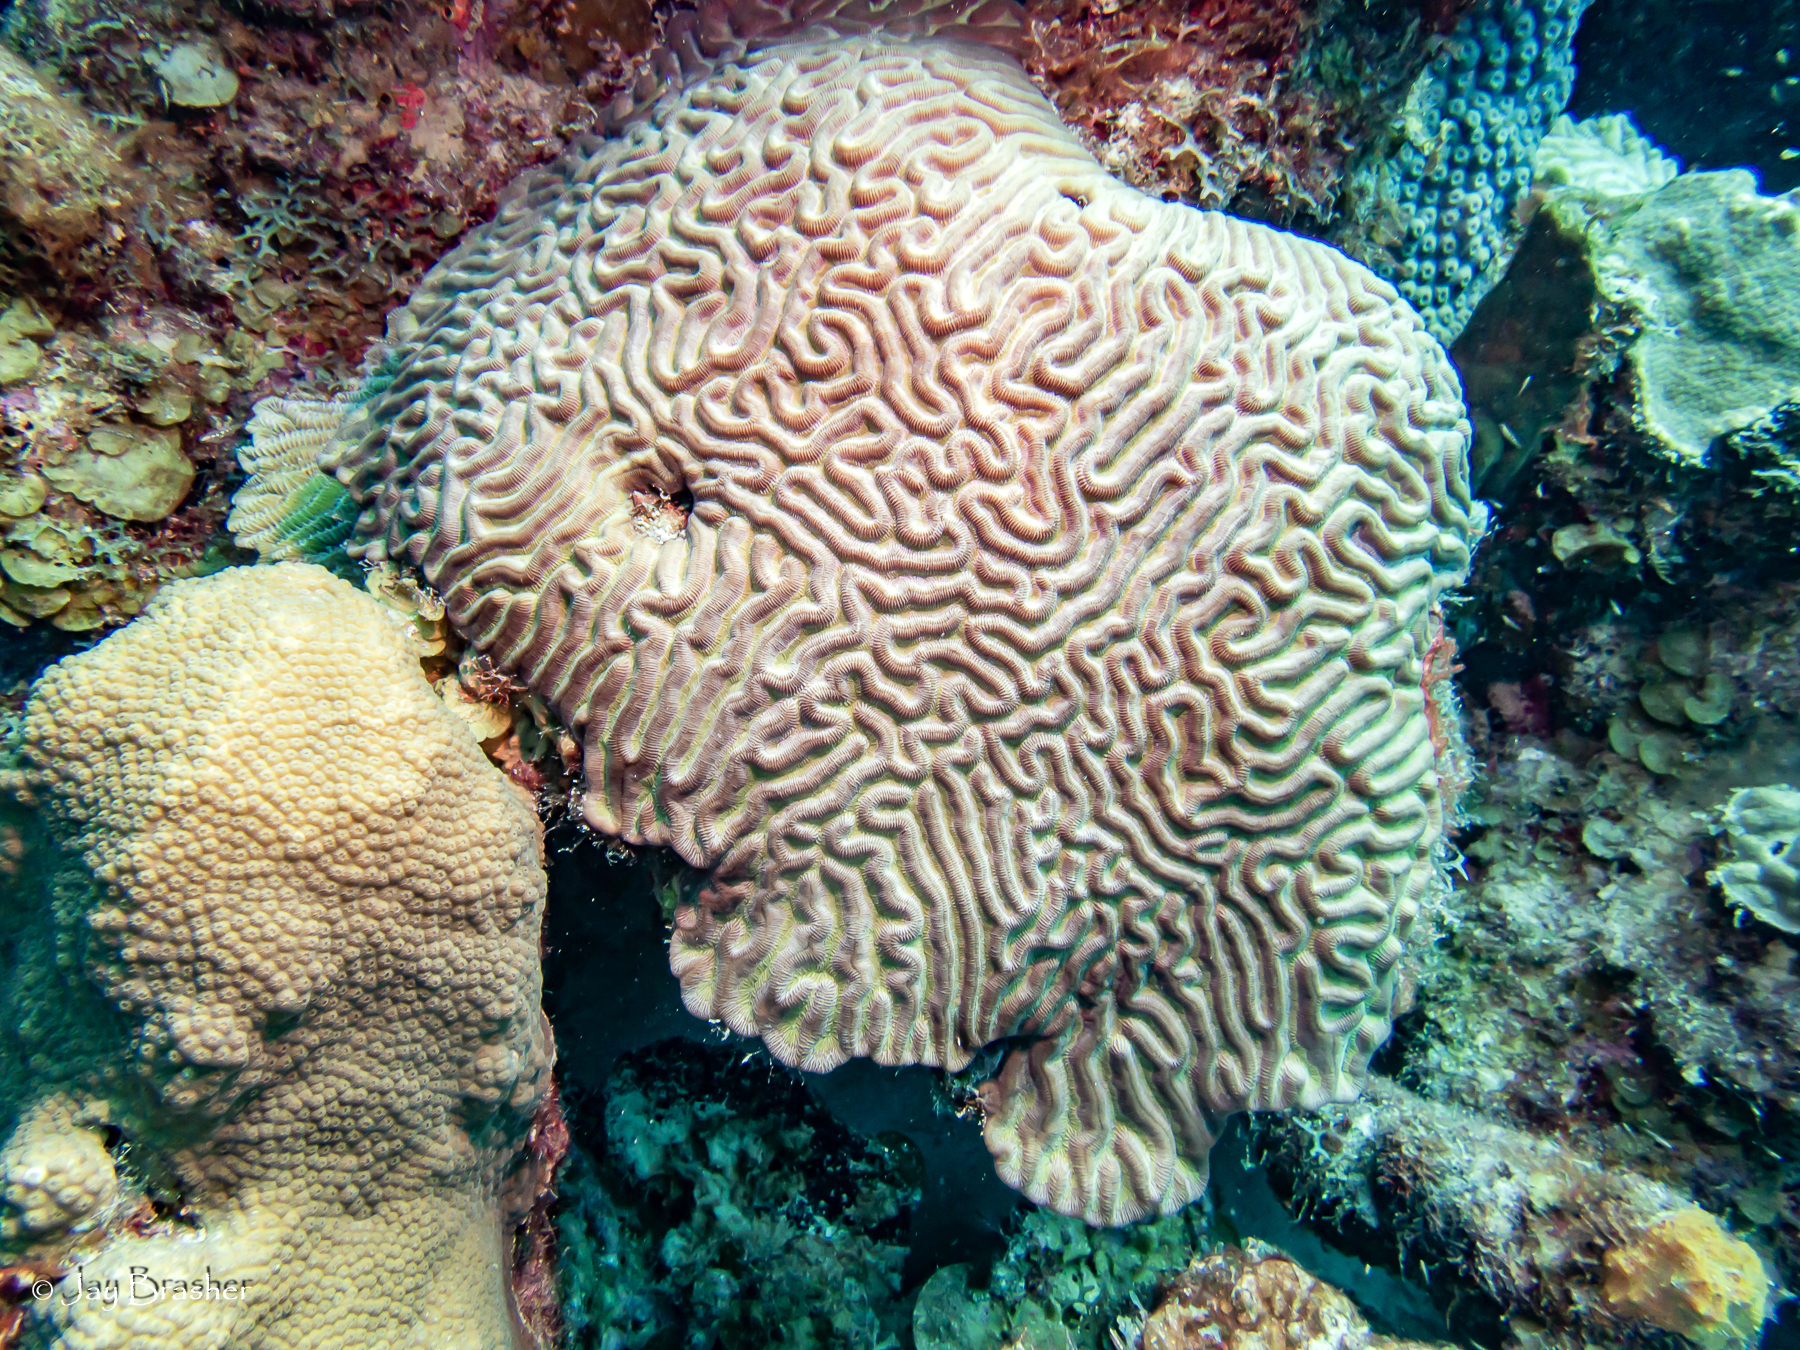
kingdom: Animalia
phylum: Cnidaria
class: Anthozoa
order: Scleractinia
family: Faviidae
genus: Colpophyllia
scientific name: Colpophyllia natans
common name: Boulder brain coral
